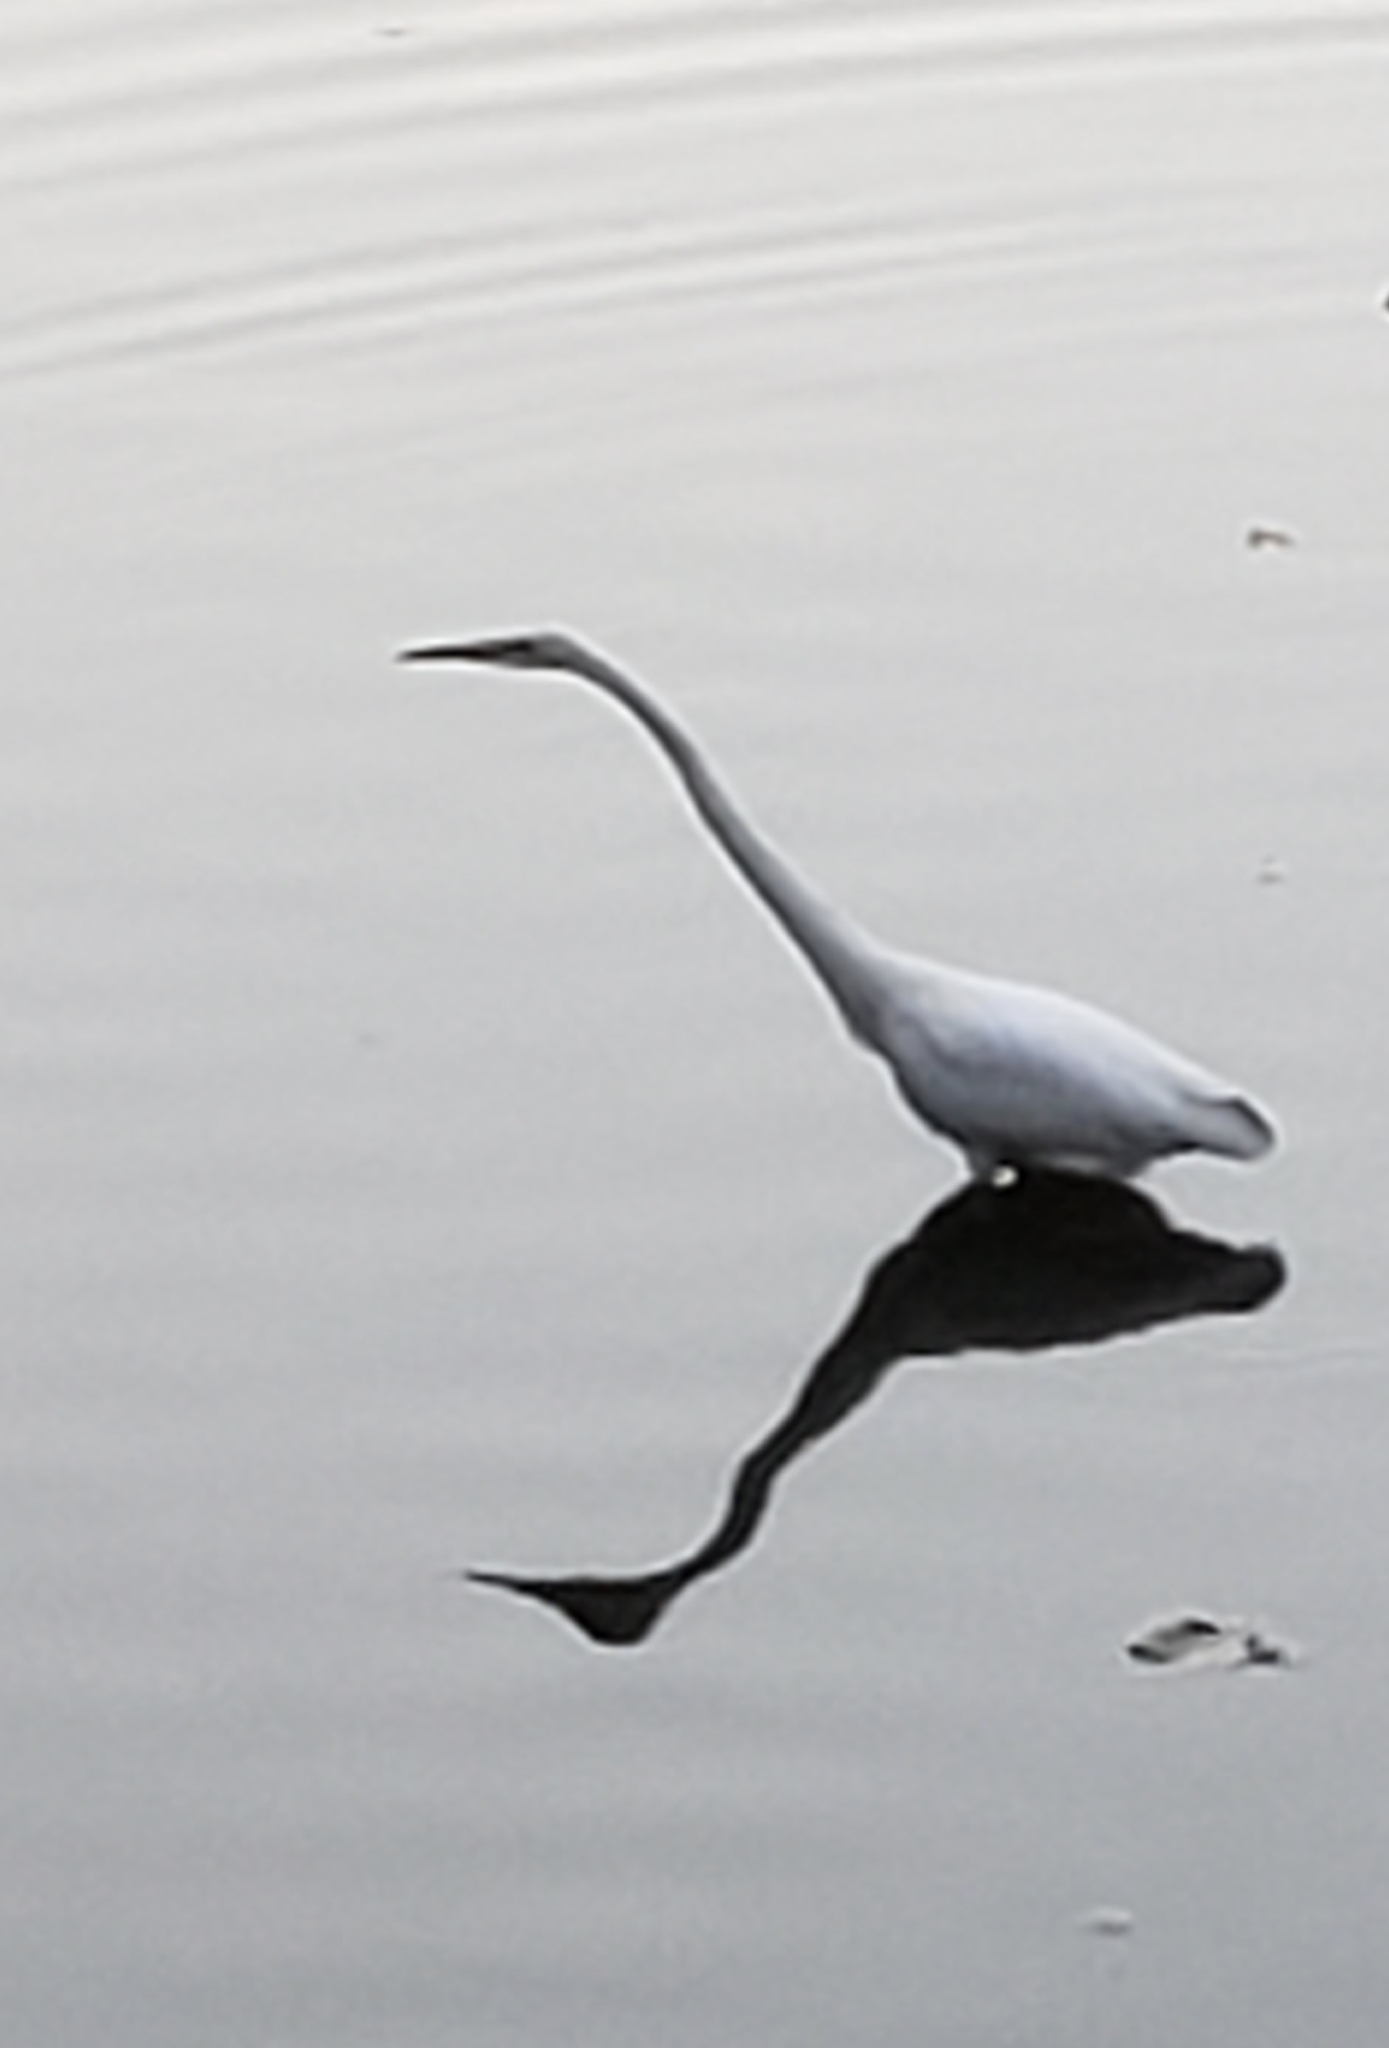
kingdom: Animalia
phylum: Chordata
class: Aves
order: Pelecaniformes
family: Ardeidae
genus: Ardea
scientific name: Ardea alba
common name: Great egret
